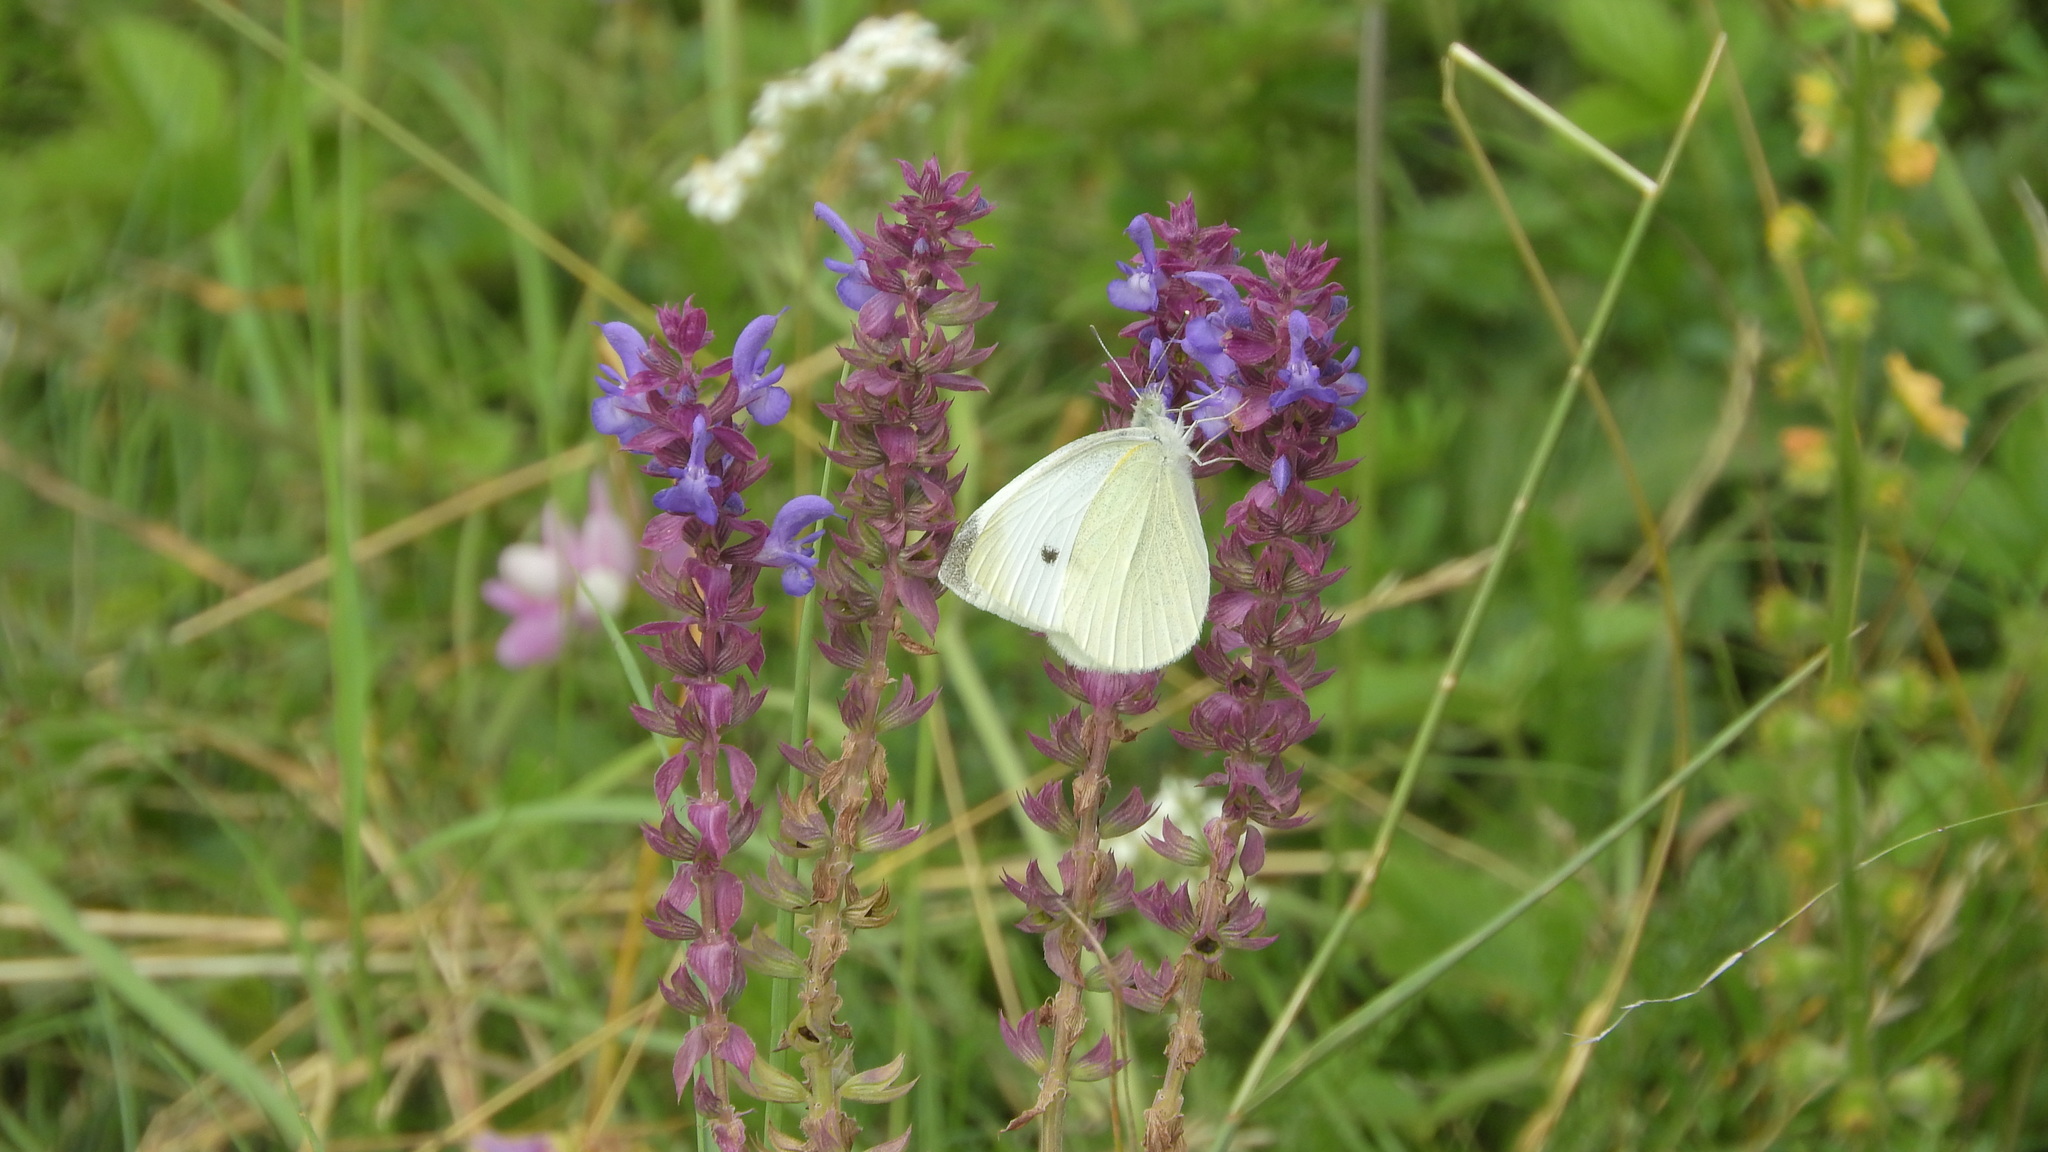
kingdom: Animalia
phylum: Arthropoda
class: Insecta
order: Lepidoptera
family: Pieridae
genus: Pieris
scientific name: Pieris rapae
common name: Small white
